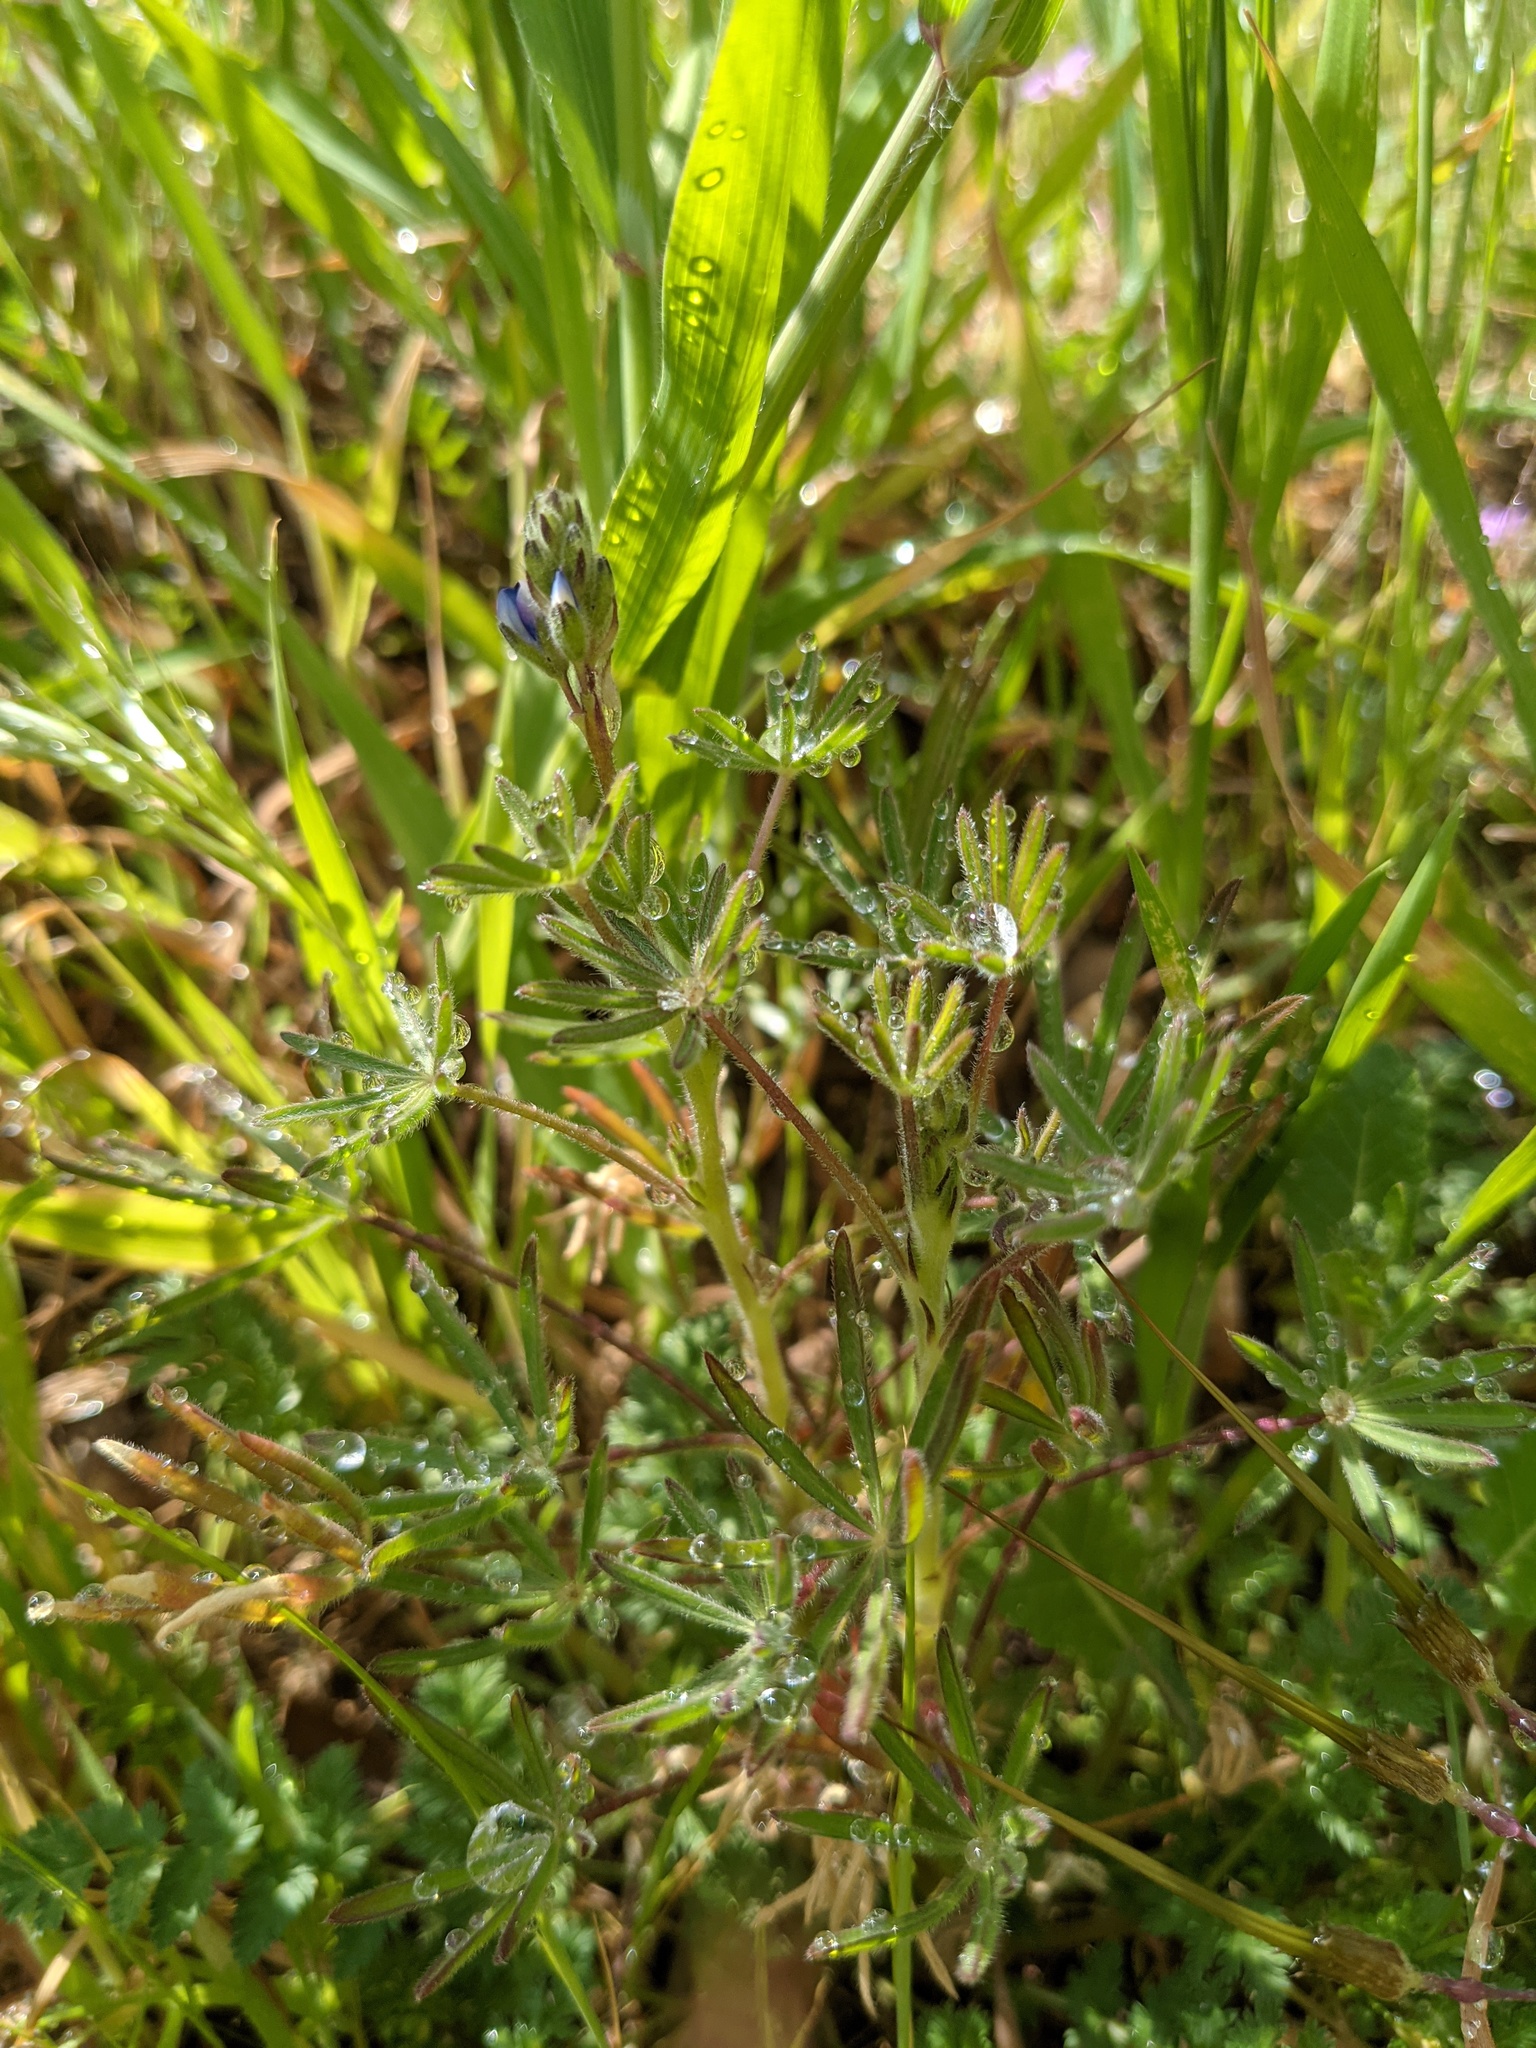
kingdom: Plantae
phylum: Tracheophyta
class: Magnoliopsida
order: Fabales
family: Fabaceae
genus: Lupinus
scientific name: Lupinus bicolor
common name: Miniature lupine
